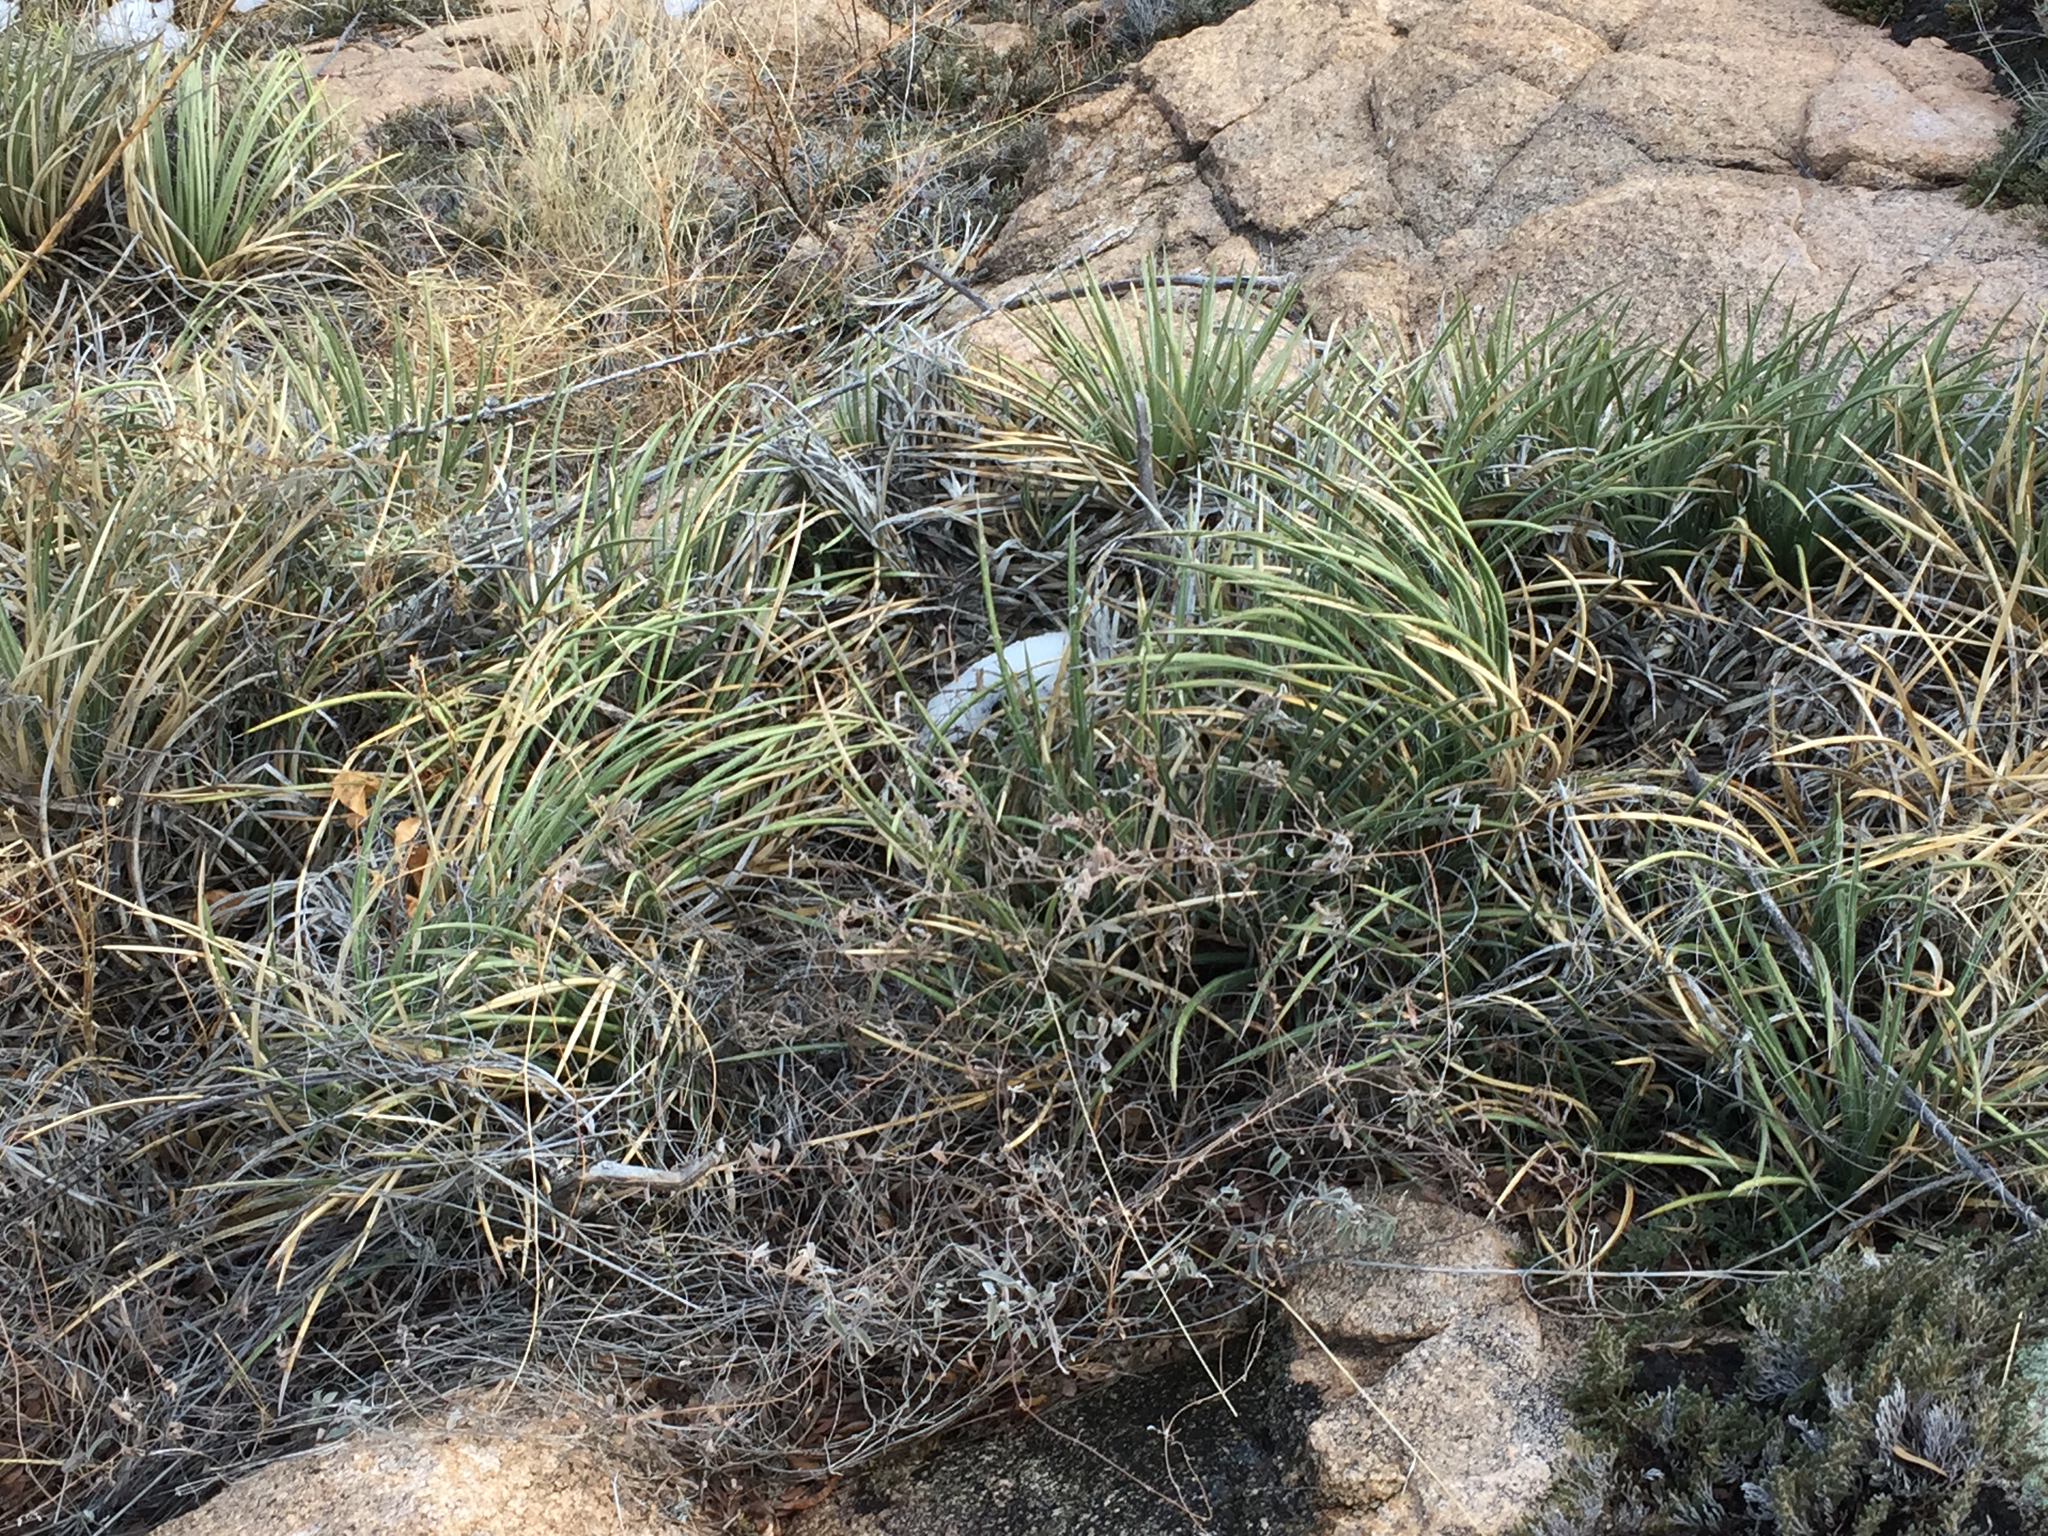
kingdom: Plantae
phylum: Tracheophyta
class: Liliopsida
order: Asparagales
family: Asparagaceae
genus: Agave
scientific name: Agave schottii
